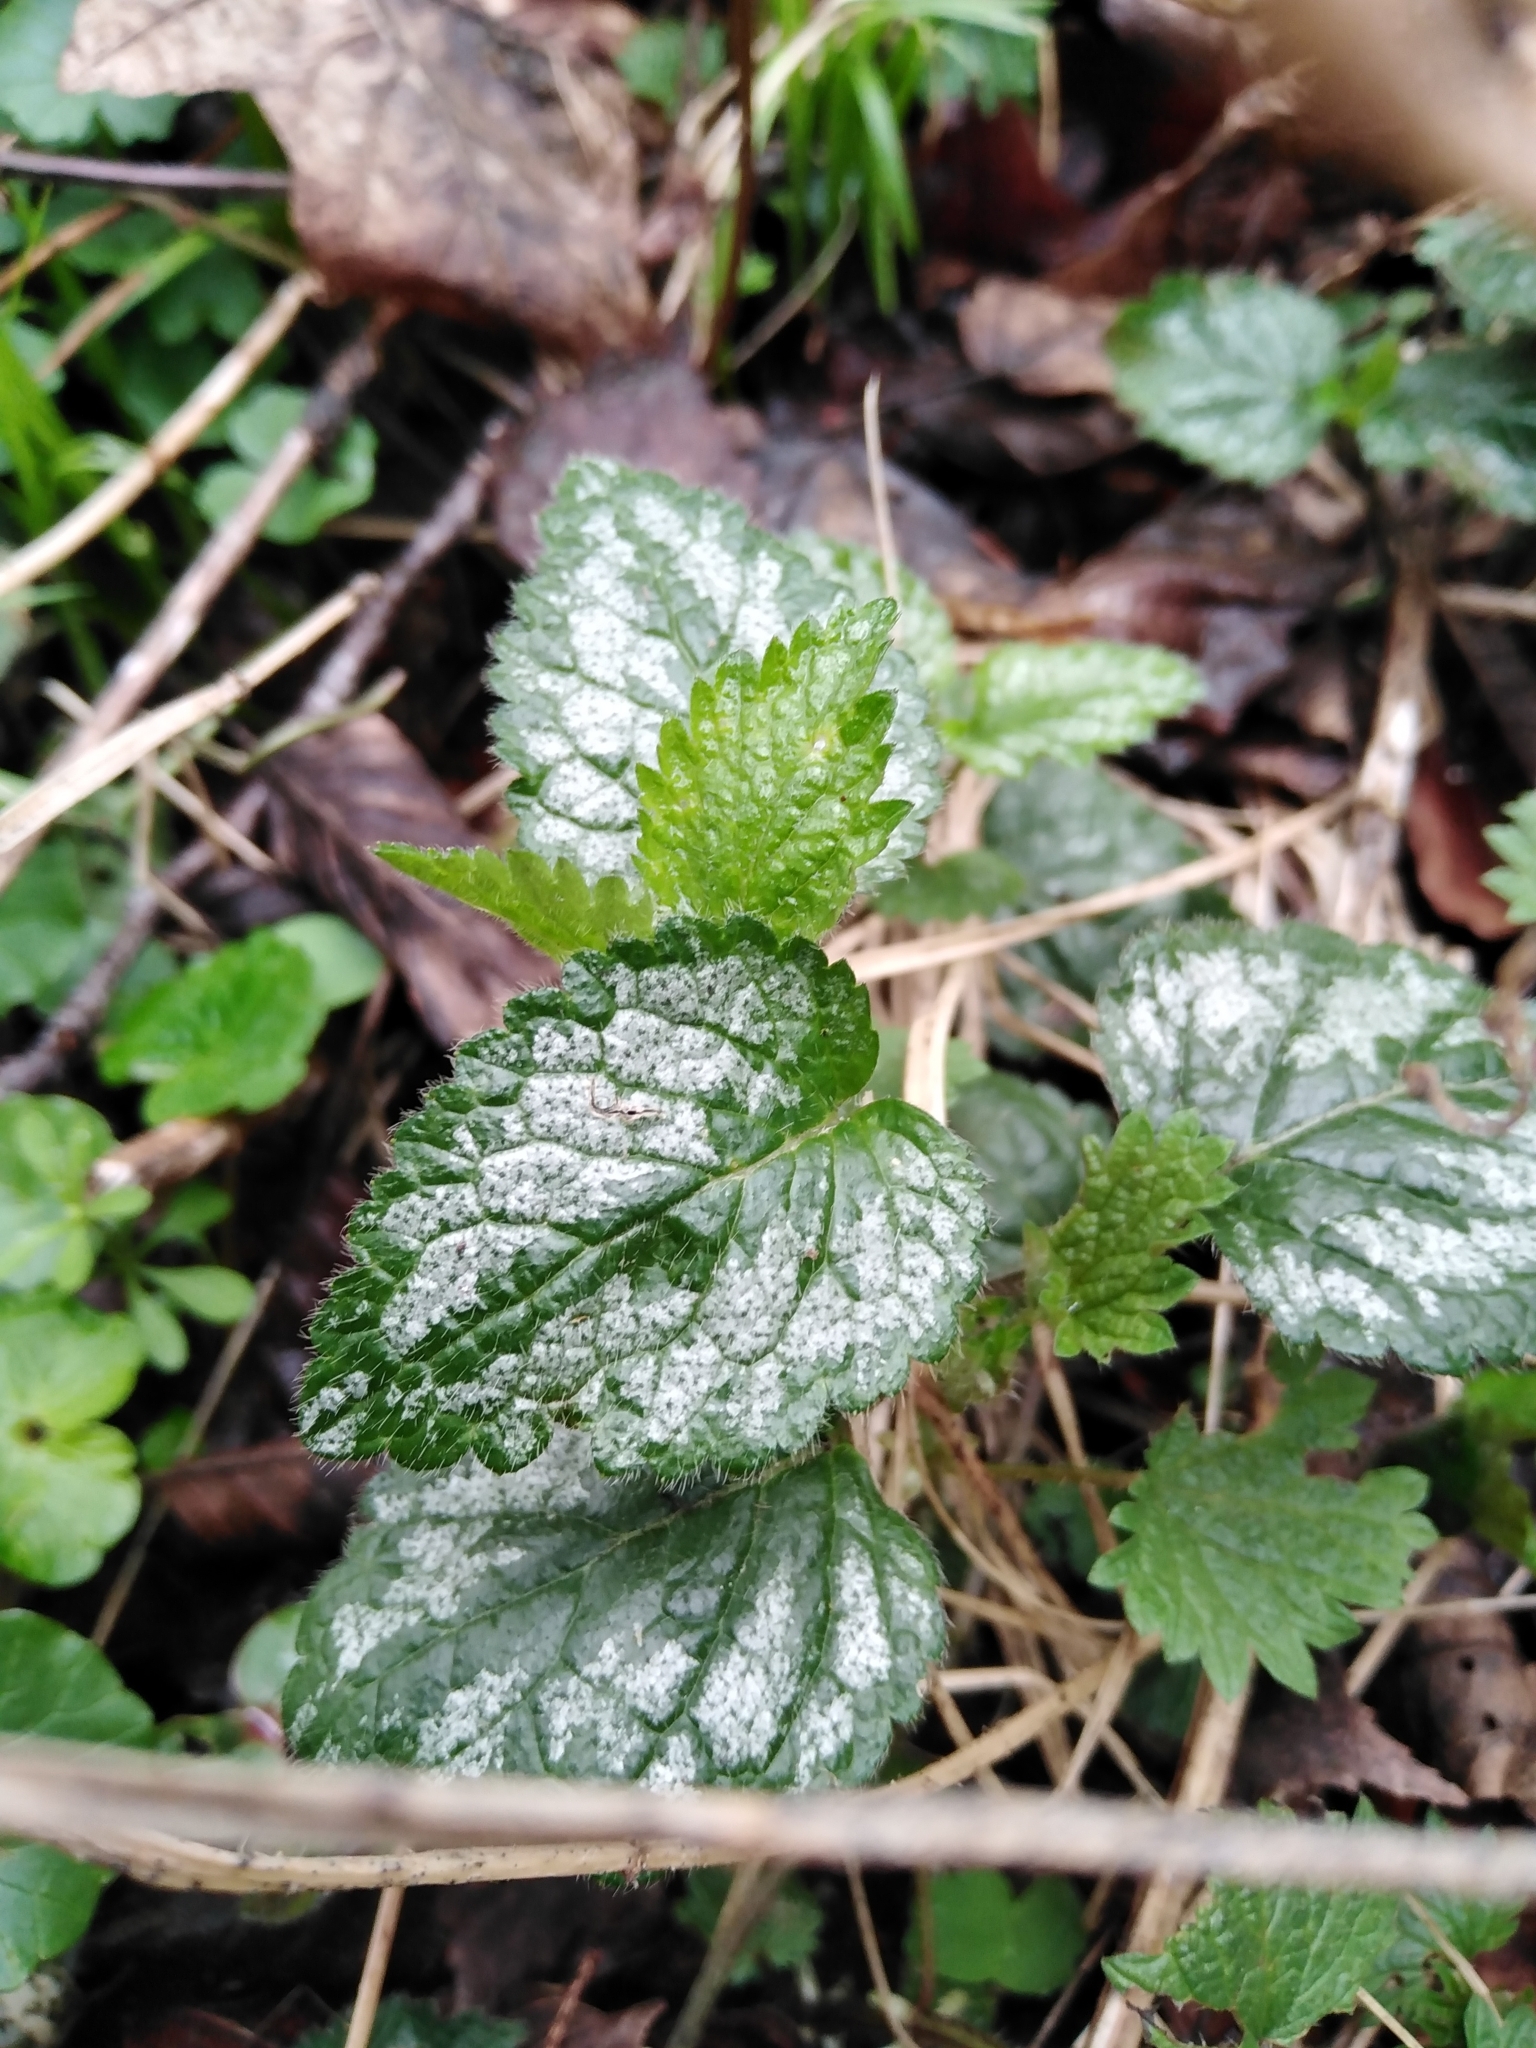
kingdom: Plantae
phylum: Tracheophyta
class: Magnoliopsida
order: Lamiales
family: Lamiaceae
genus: Lamium
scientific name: Lamium galeobdolon
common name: Yellow archangel
